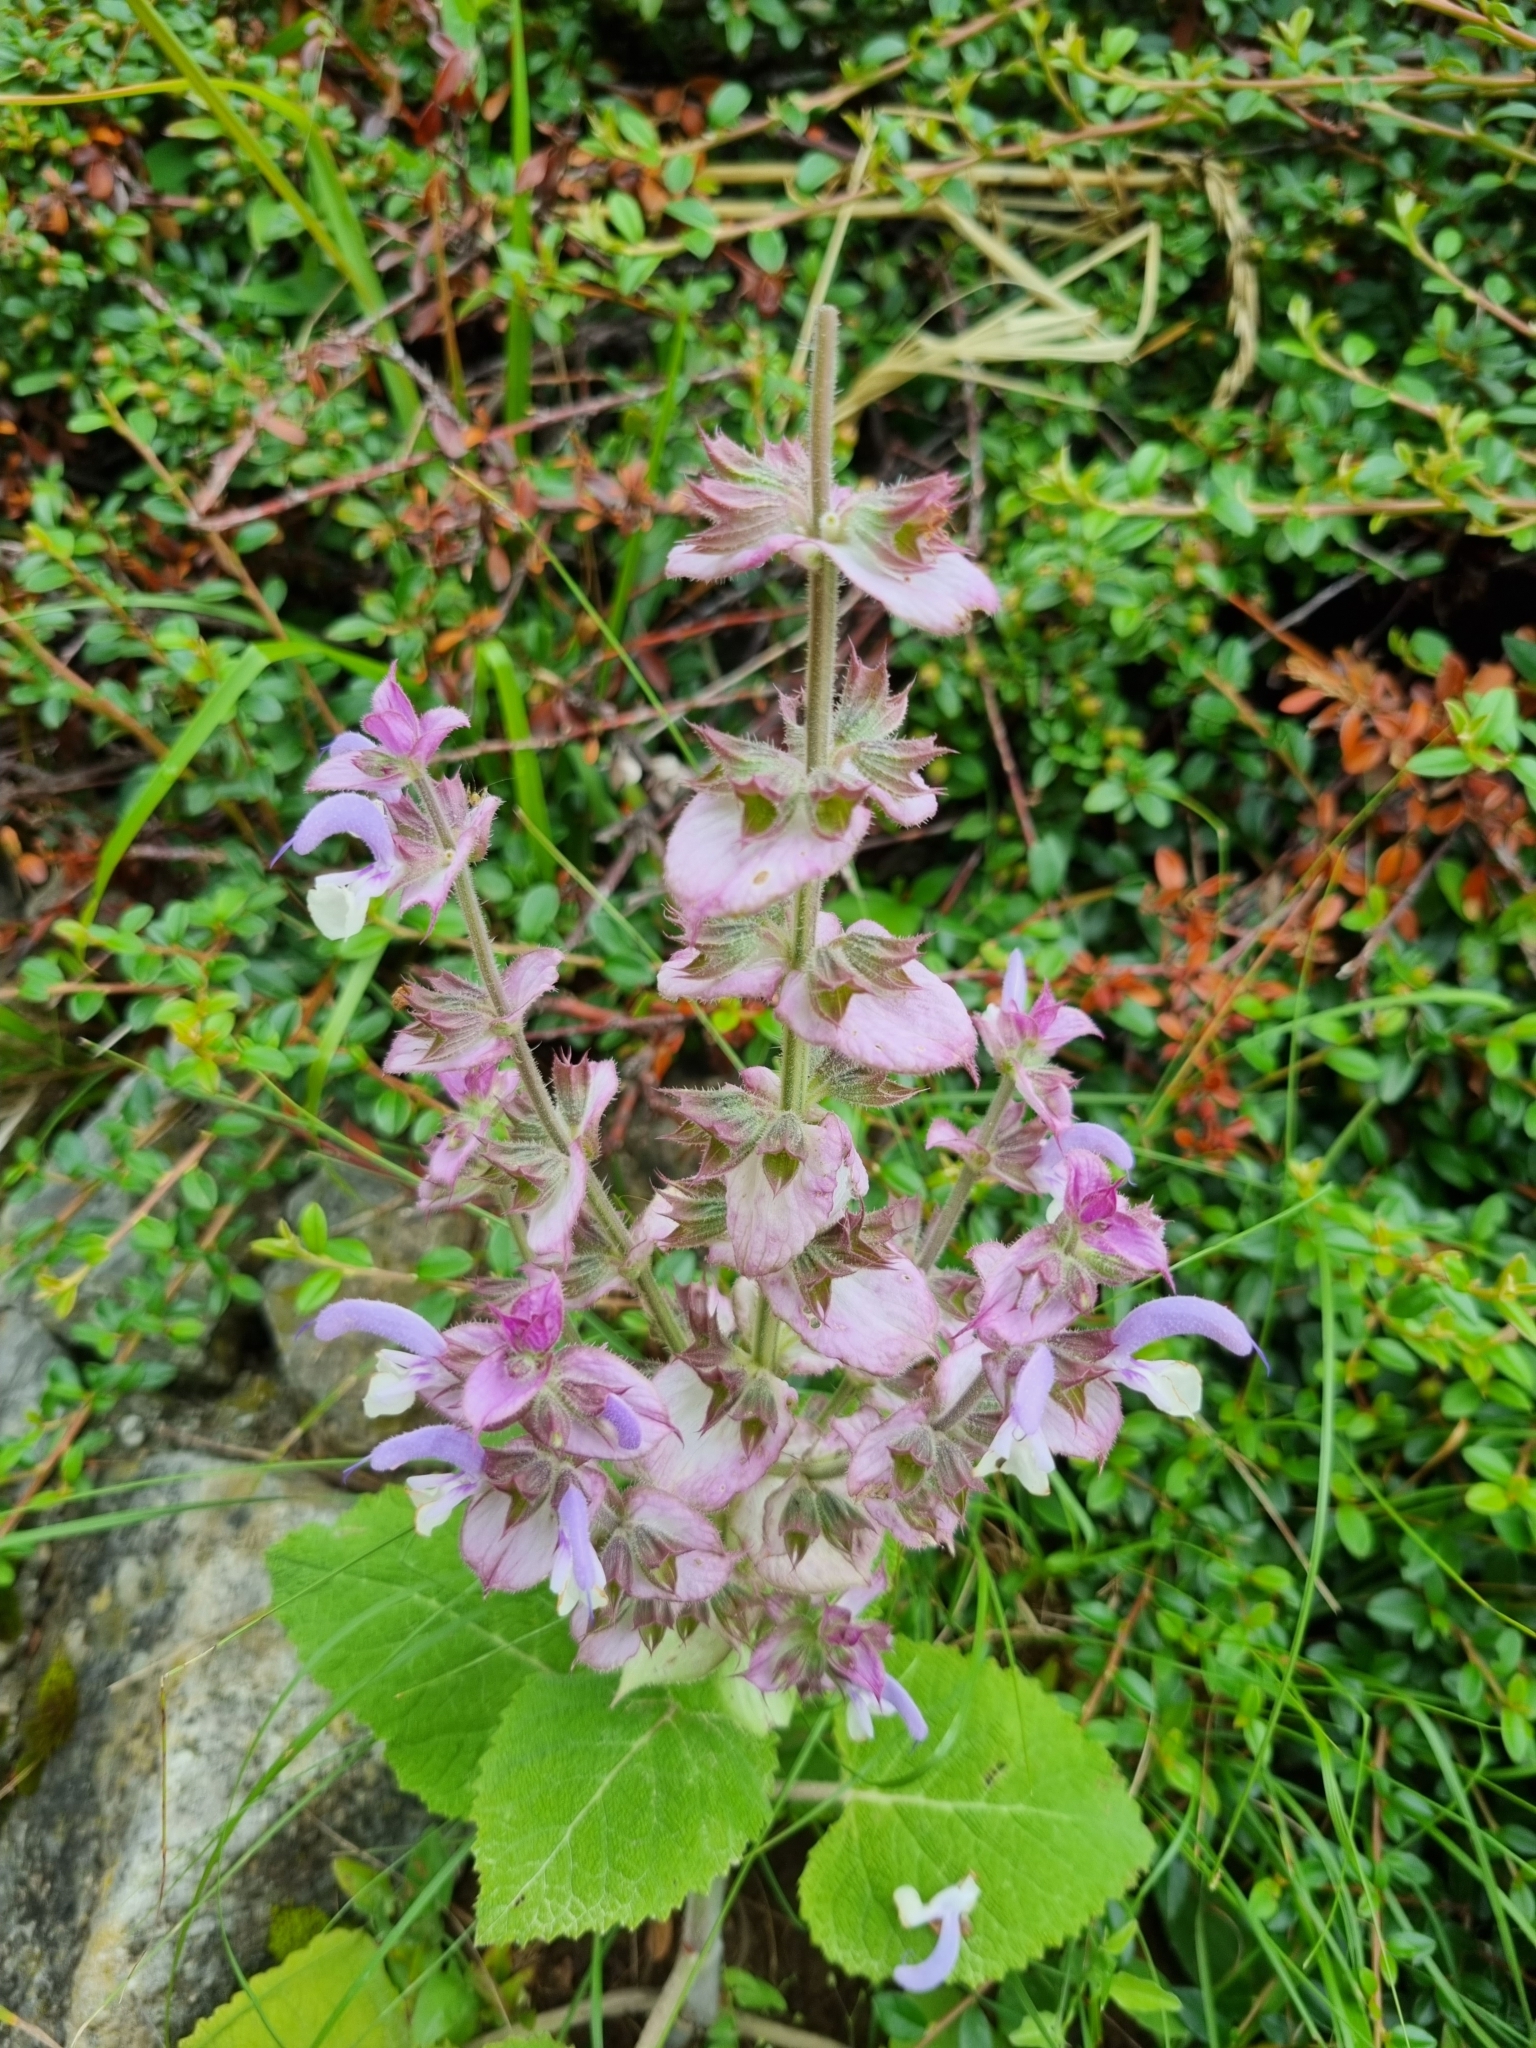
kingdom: Plantae
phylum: Tracheophyta
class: Magnoliopsida
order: Lamiales
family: Lamiaceae
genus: Salvia
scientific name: Salvia sclarea
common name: Clary
